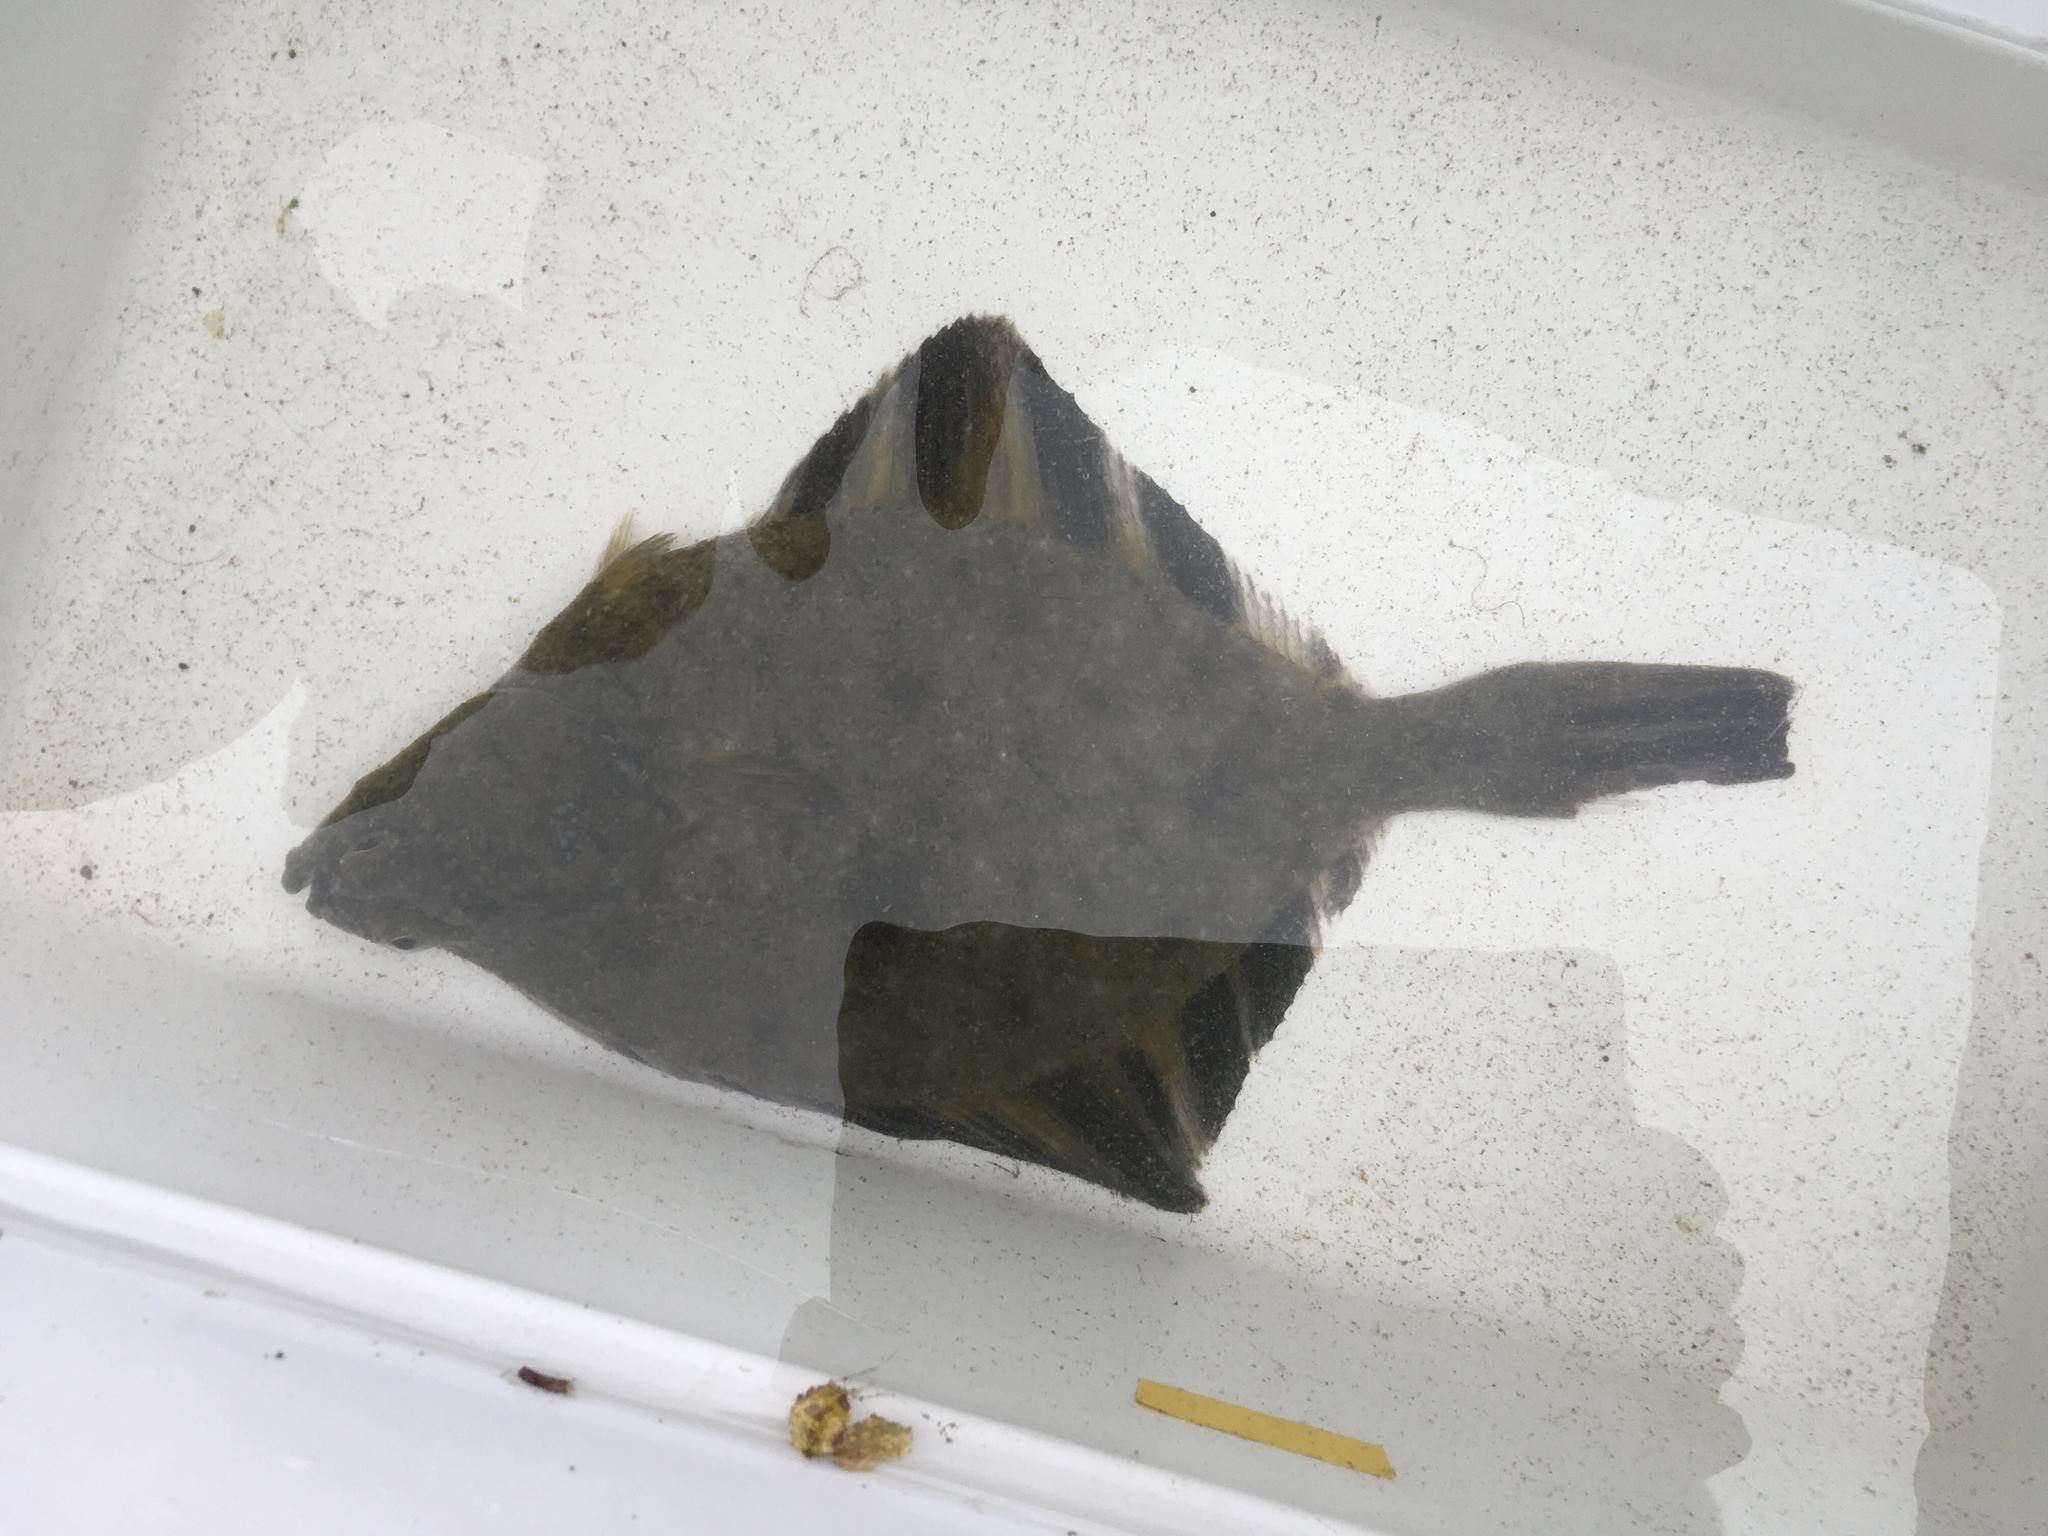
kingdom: Animalia
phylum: Chordata
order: Pleuronectiformes
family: Pleuronectidae
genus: Platichthys
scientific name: Platichthys stellatus
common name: Starry flounder
